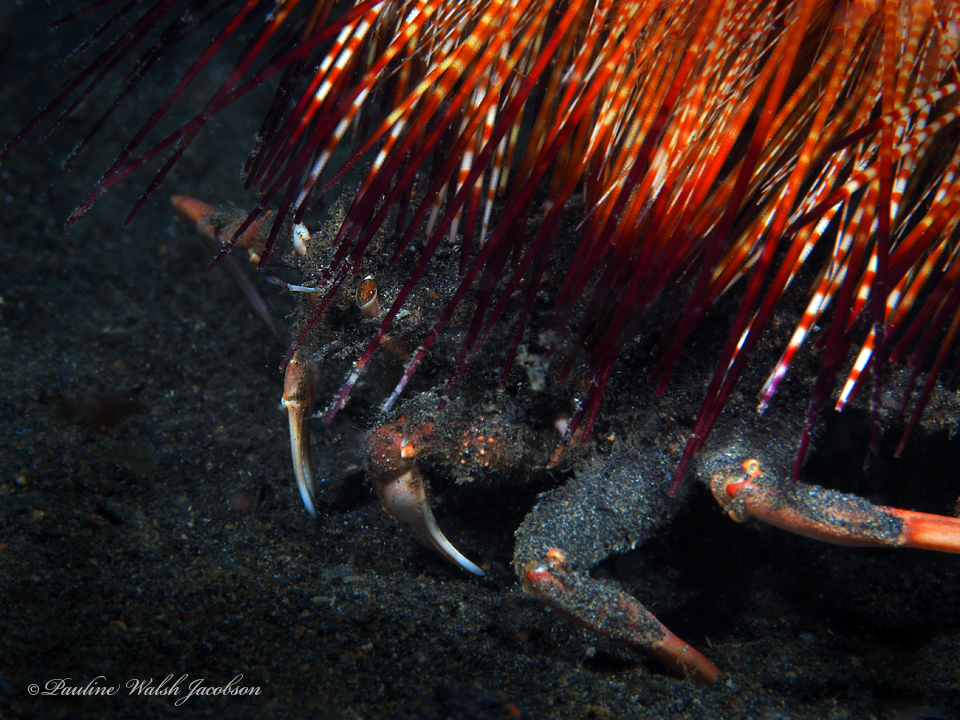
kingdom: Animalia
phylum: Arthropoda
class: Malacostraca
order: Decapoda
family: Dorippidae
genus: Dorippe
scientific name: Dorippe frascone
